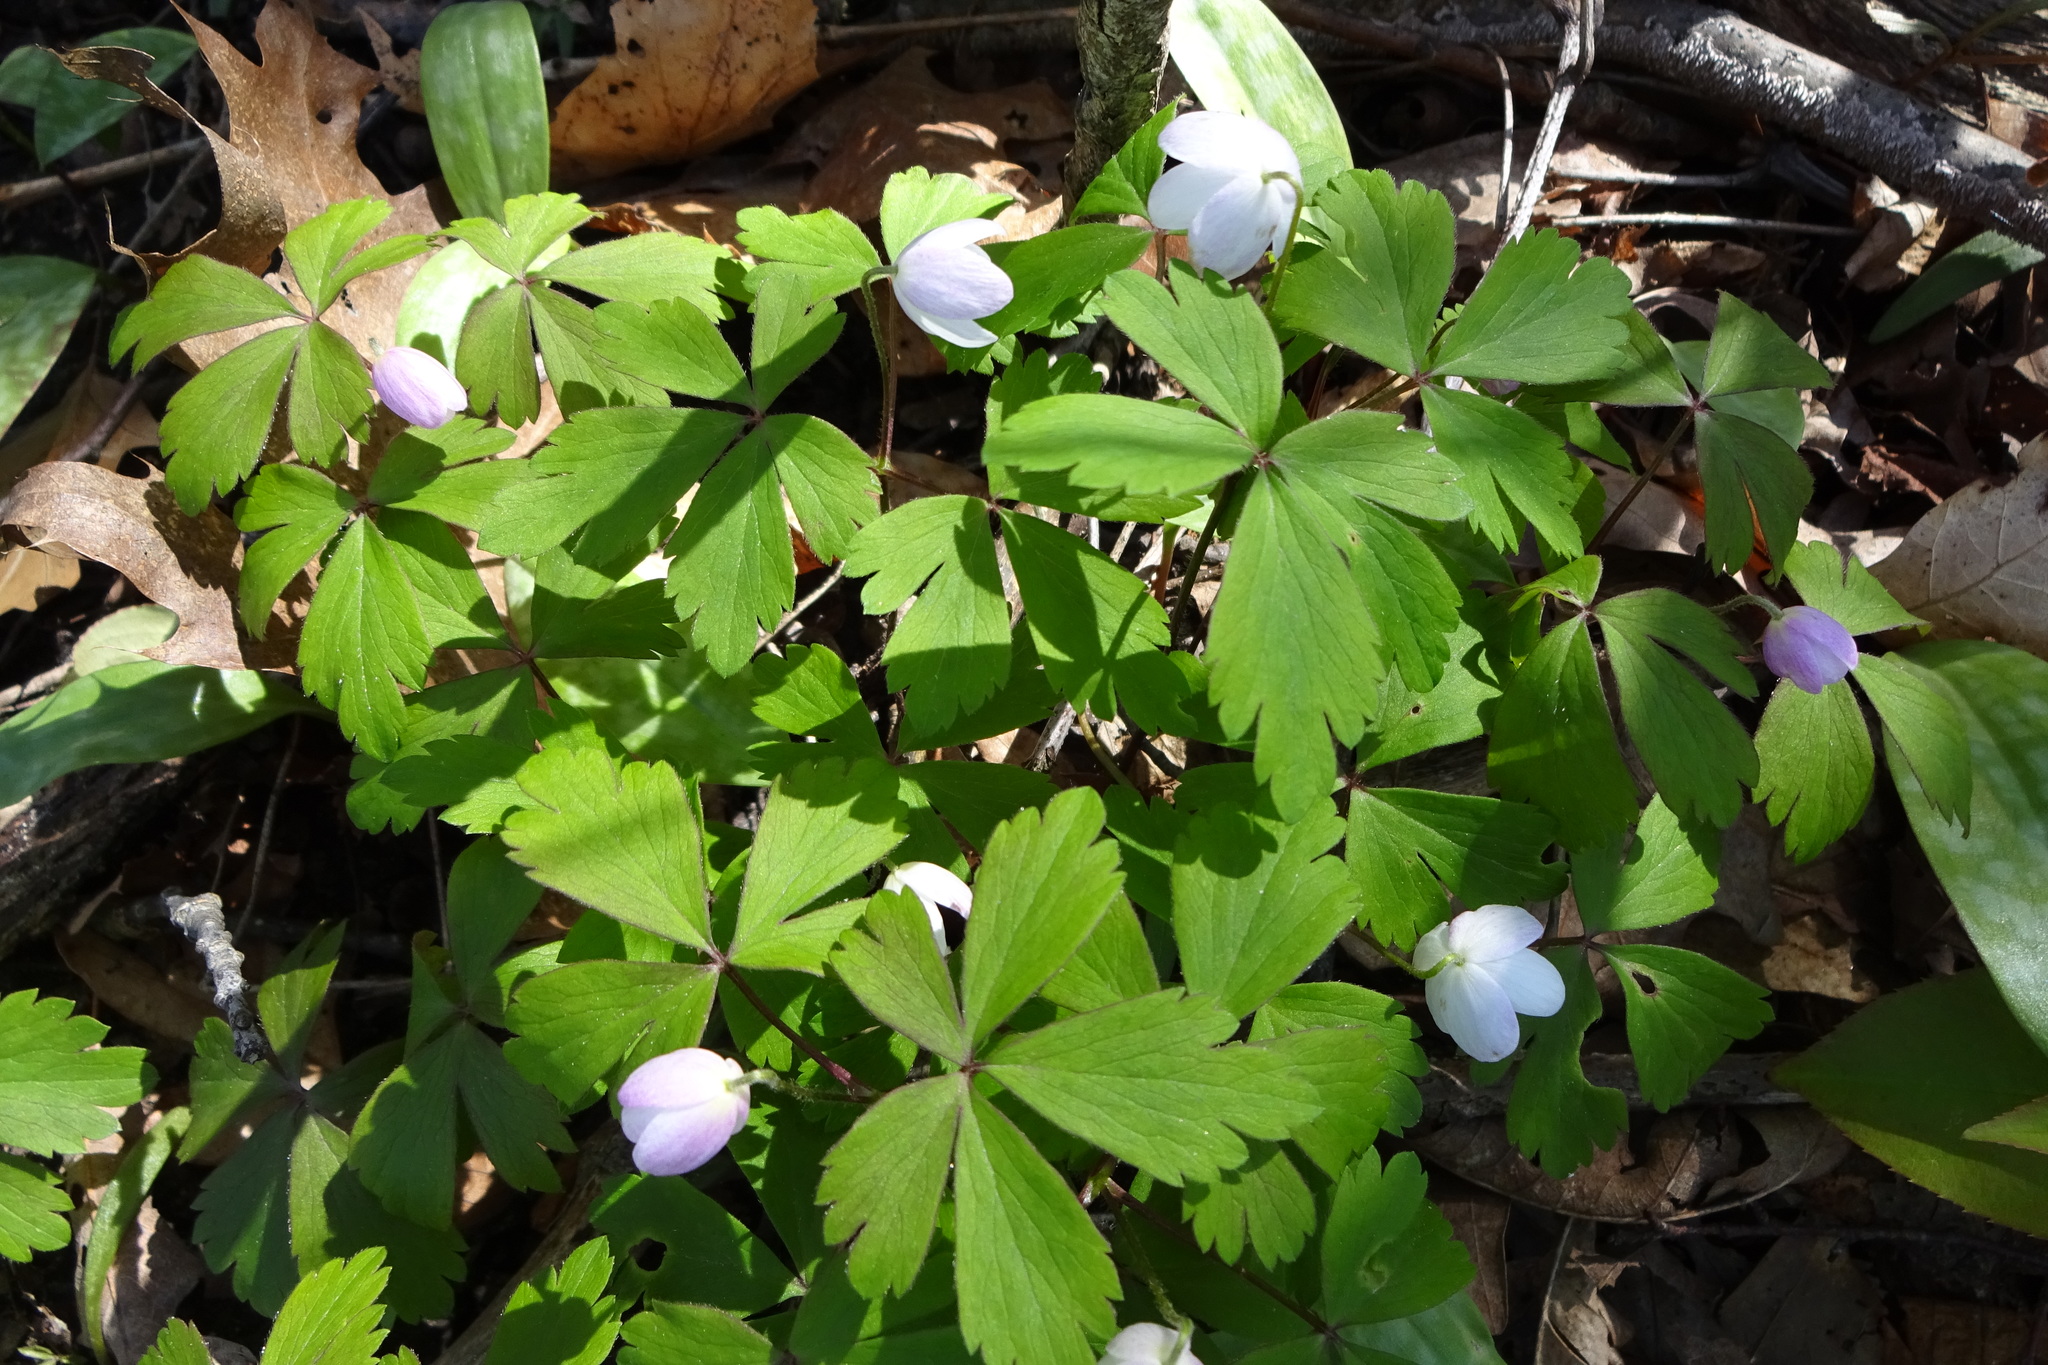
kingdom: Plantae
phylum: Tracheophyta
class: Magnoliopsida
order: Ranunculales
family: Ranunculaceae
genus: Anemone
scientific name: Anemone quinquefolia
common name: Wood anemone
